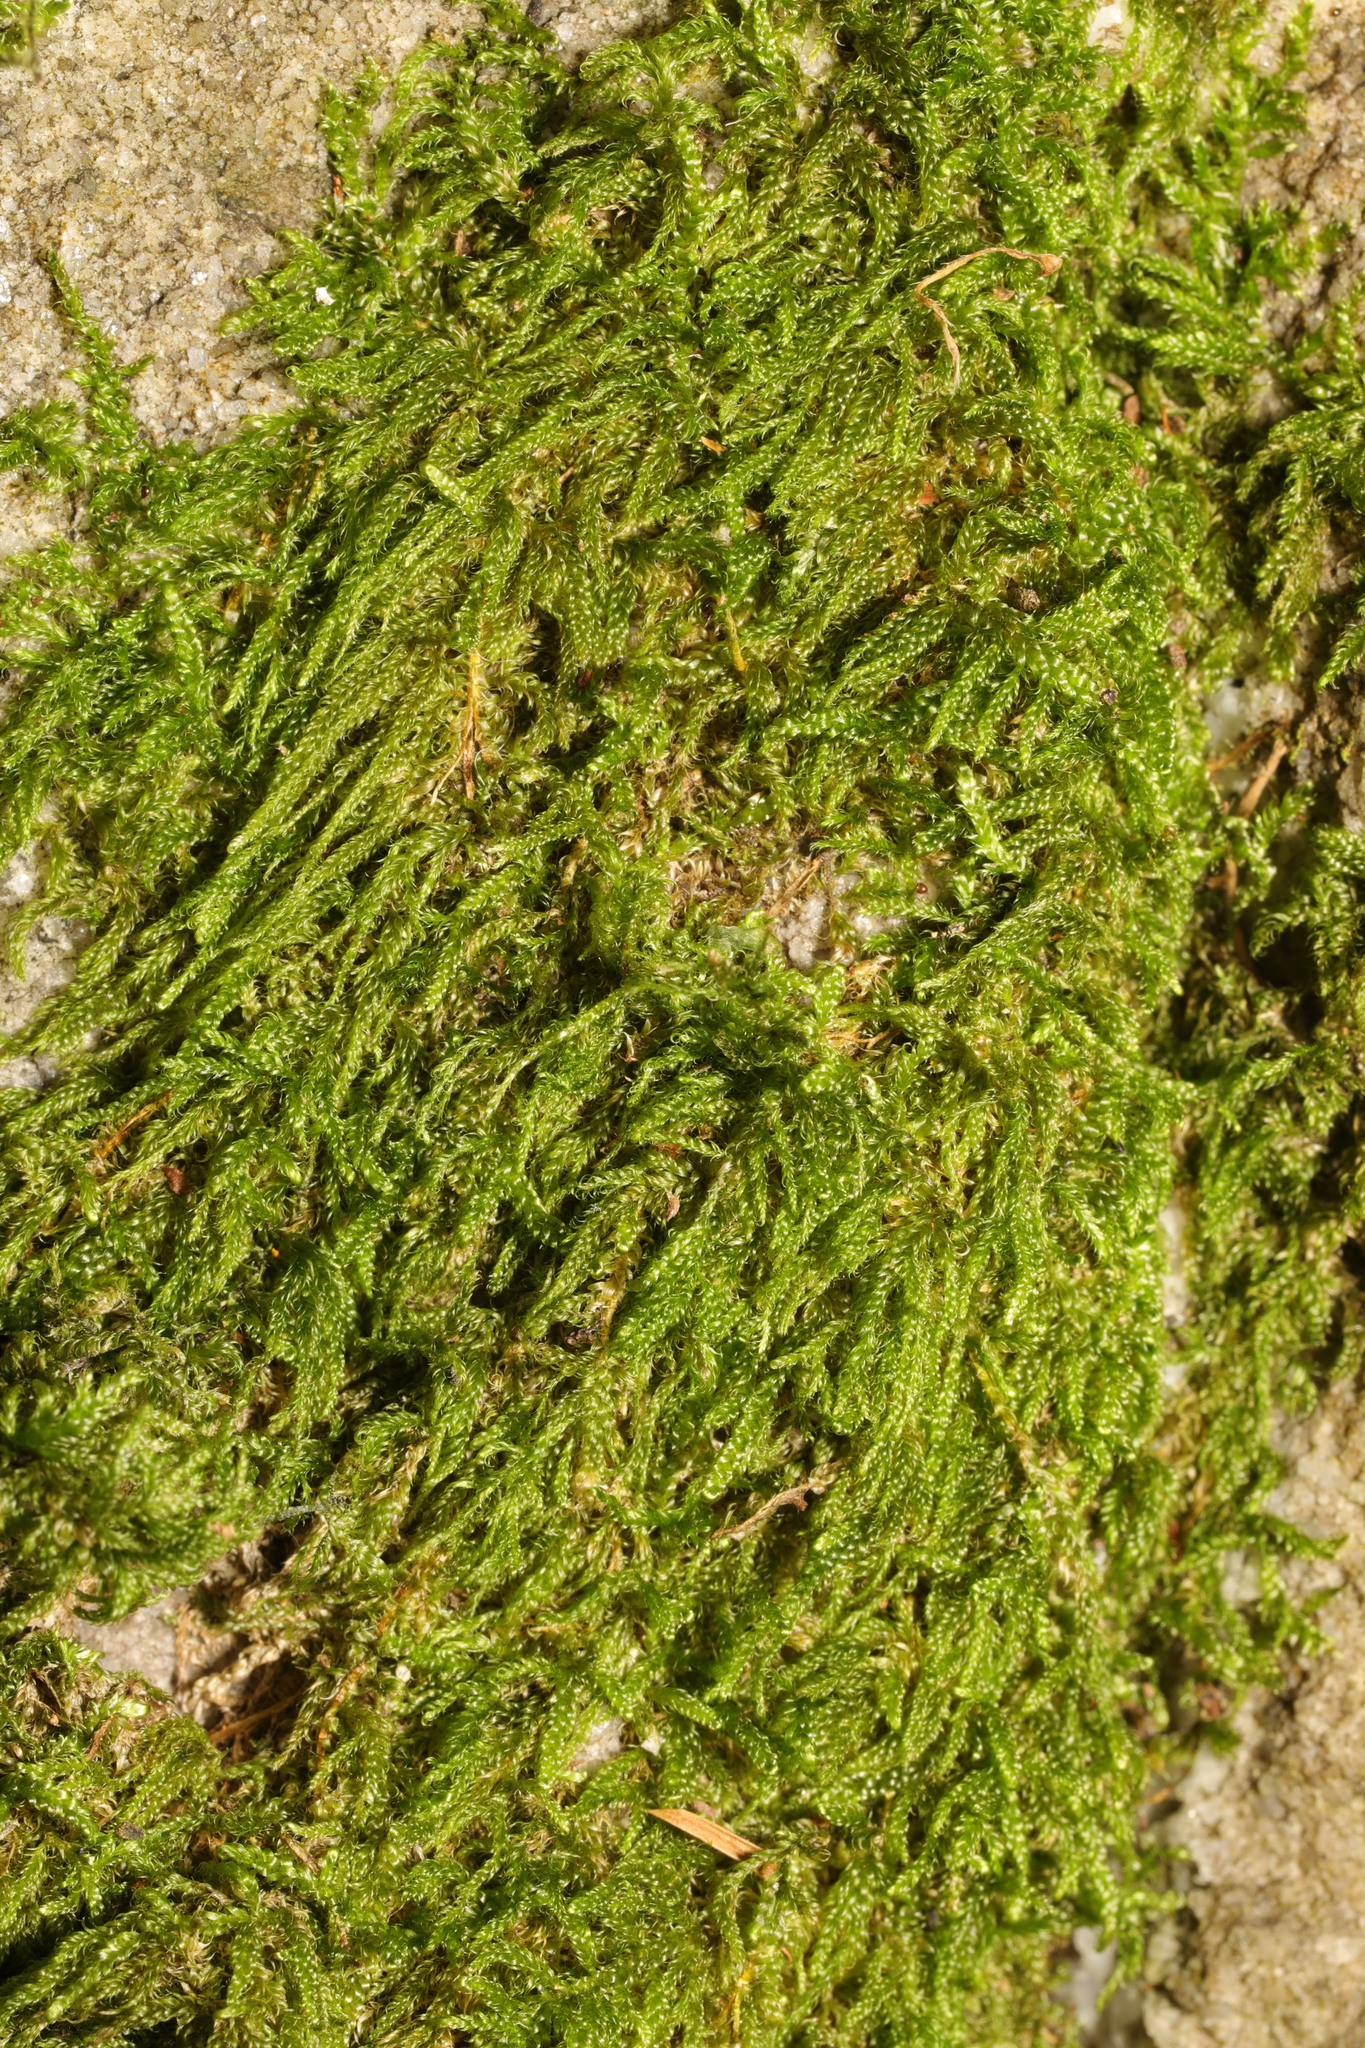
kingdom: Plantae
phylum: Bryophyta
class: Bryopsida
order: Hypnales
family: Hypnaceae
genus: Hypnum
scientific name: Hypnum cupressiforme
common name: Cypress-leaved plait-moss
